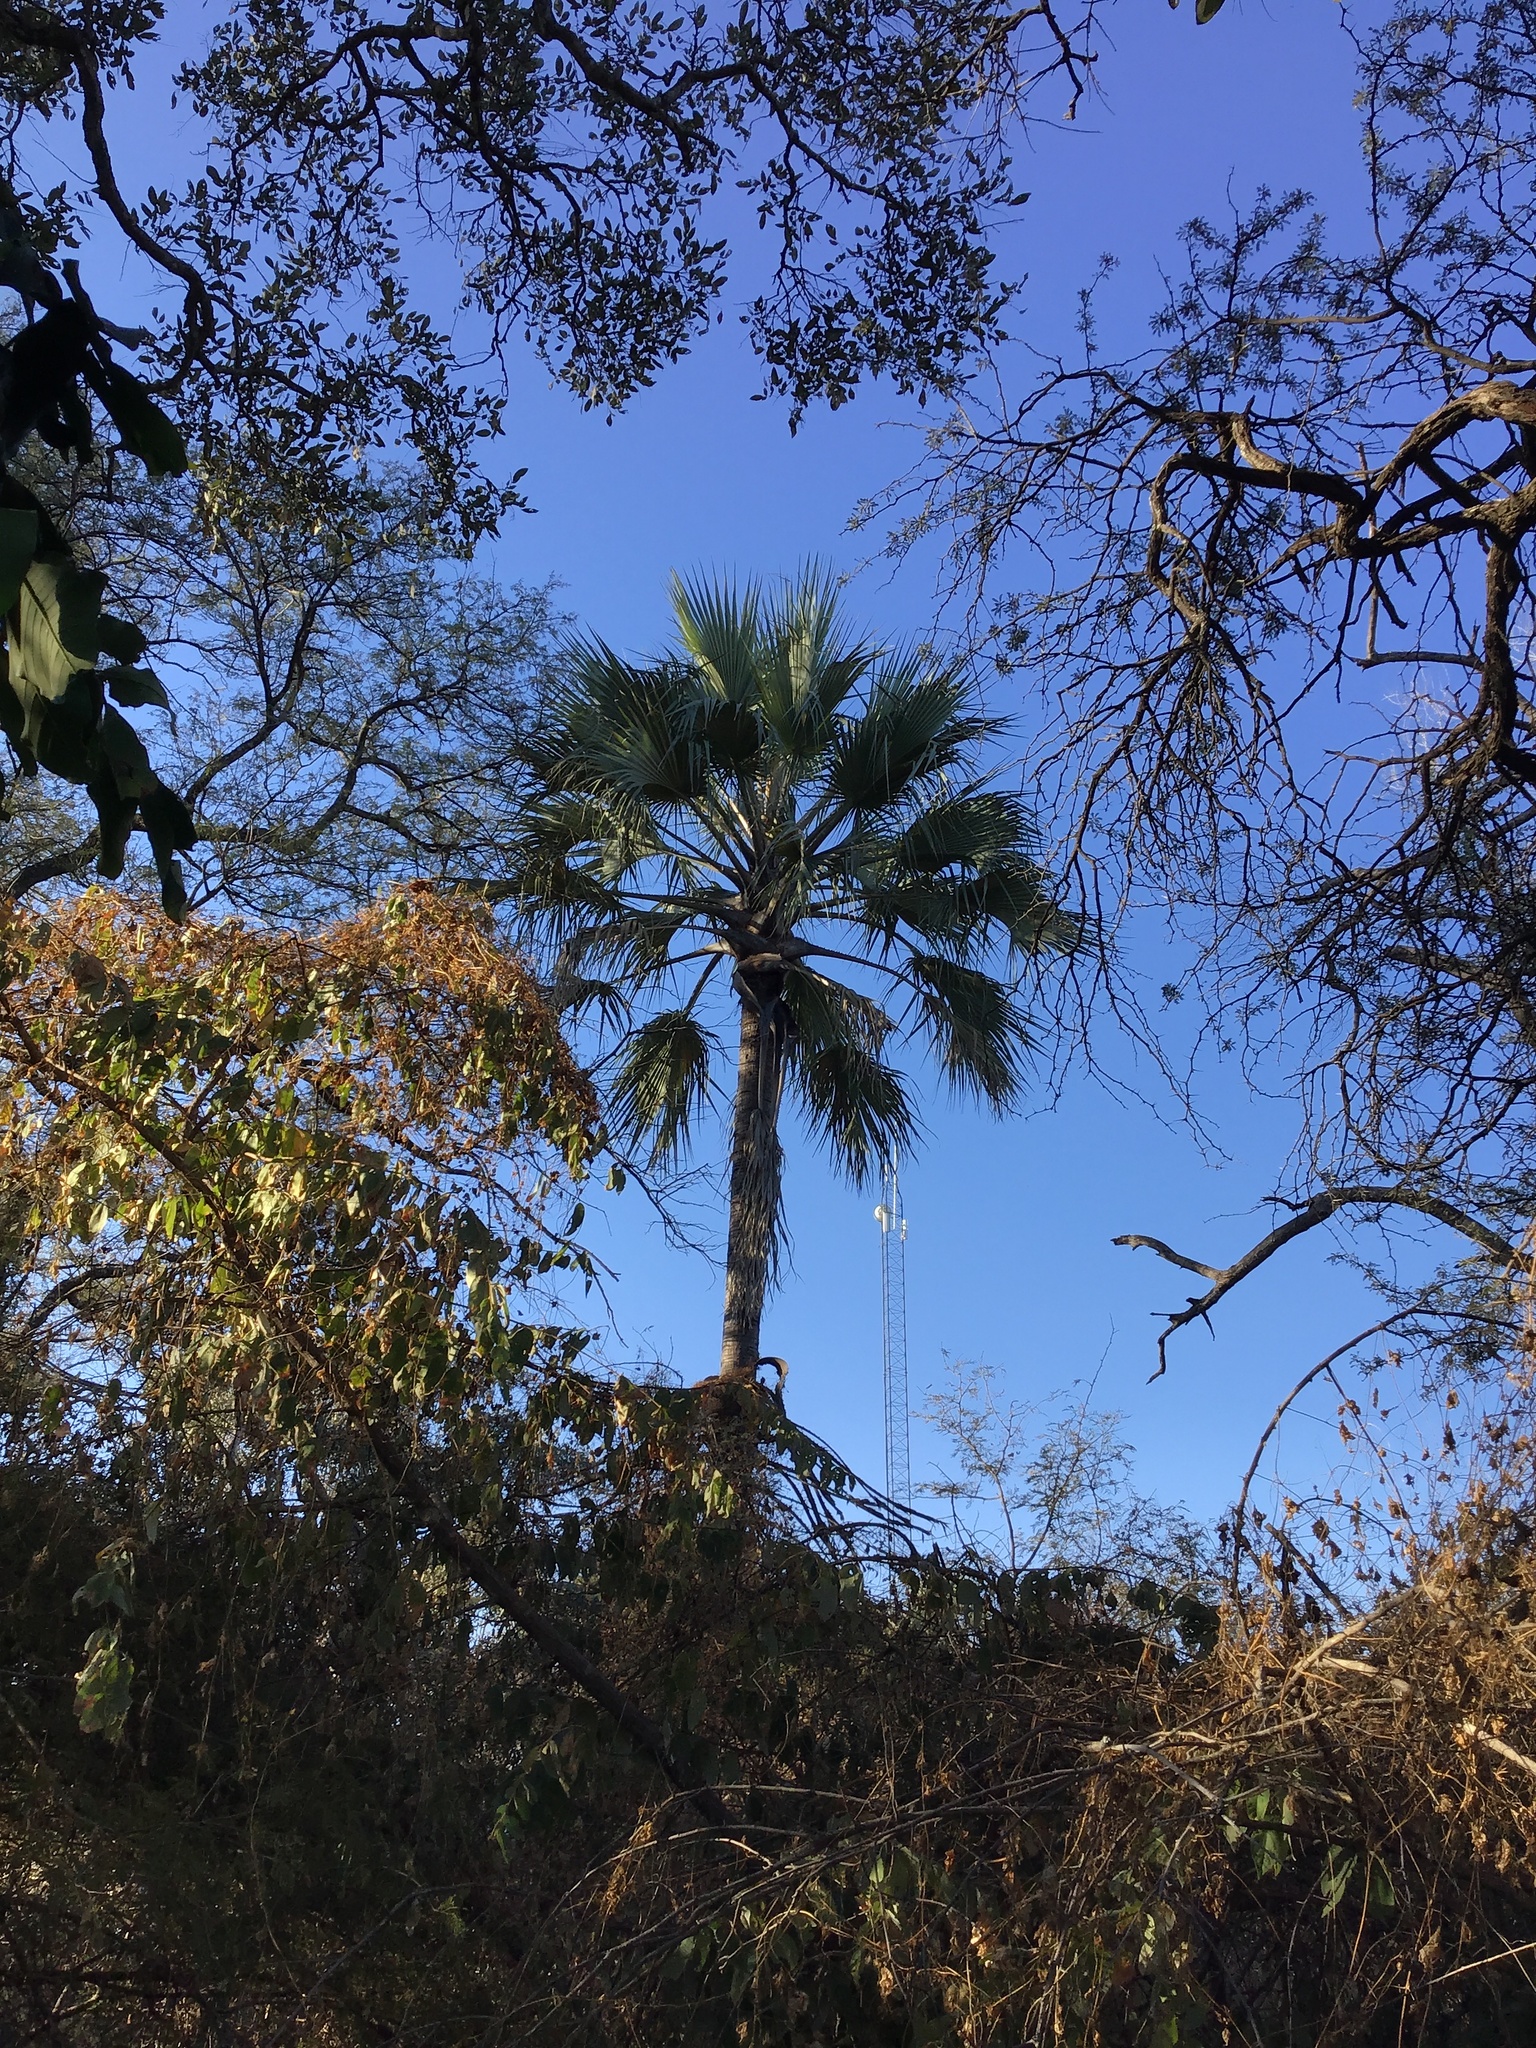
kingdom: Plantae
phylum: Tracheophyta
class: Liliopsida
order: Arecales
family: Arecaceae
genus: Hyphaene
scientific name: Hyphaene petersiana
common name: African ivory nut palm
